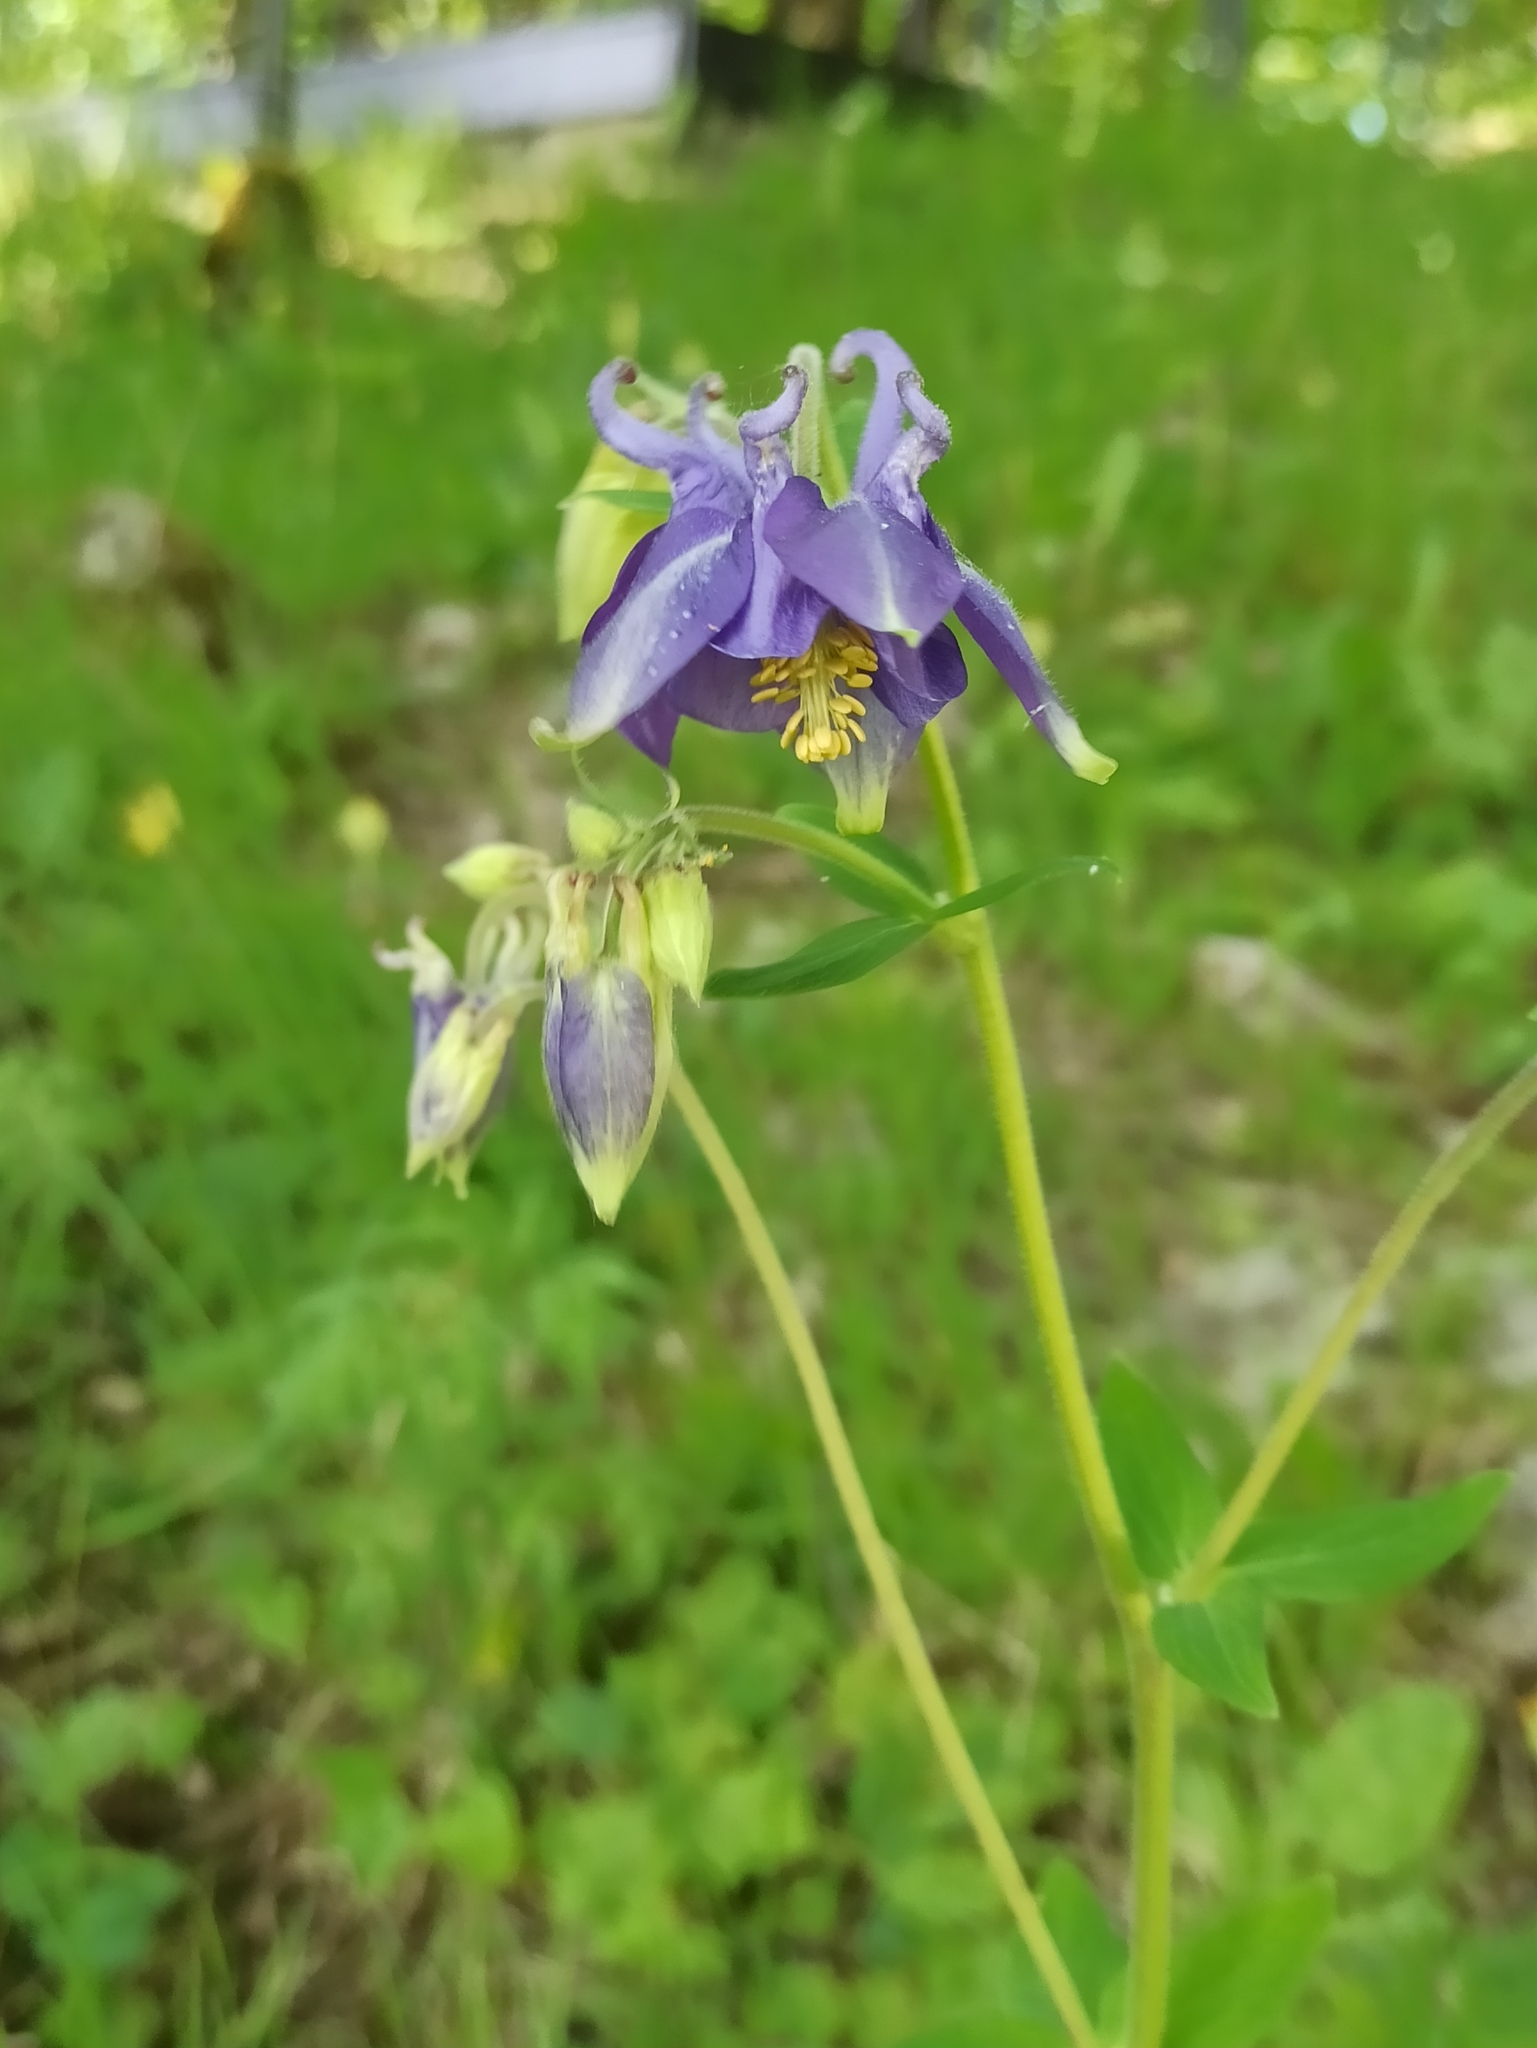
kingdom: Plantae
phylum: Tracheophyta
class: Magnoliopsida
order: Ranunculales
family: Ranunculaceae
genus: Aquilegia
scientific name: Aquilegia vulgaris
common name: Columbine
